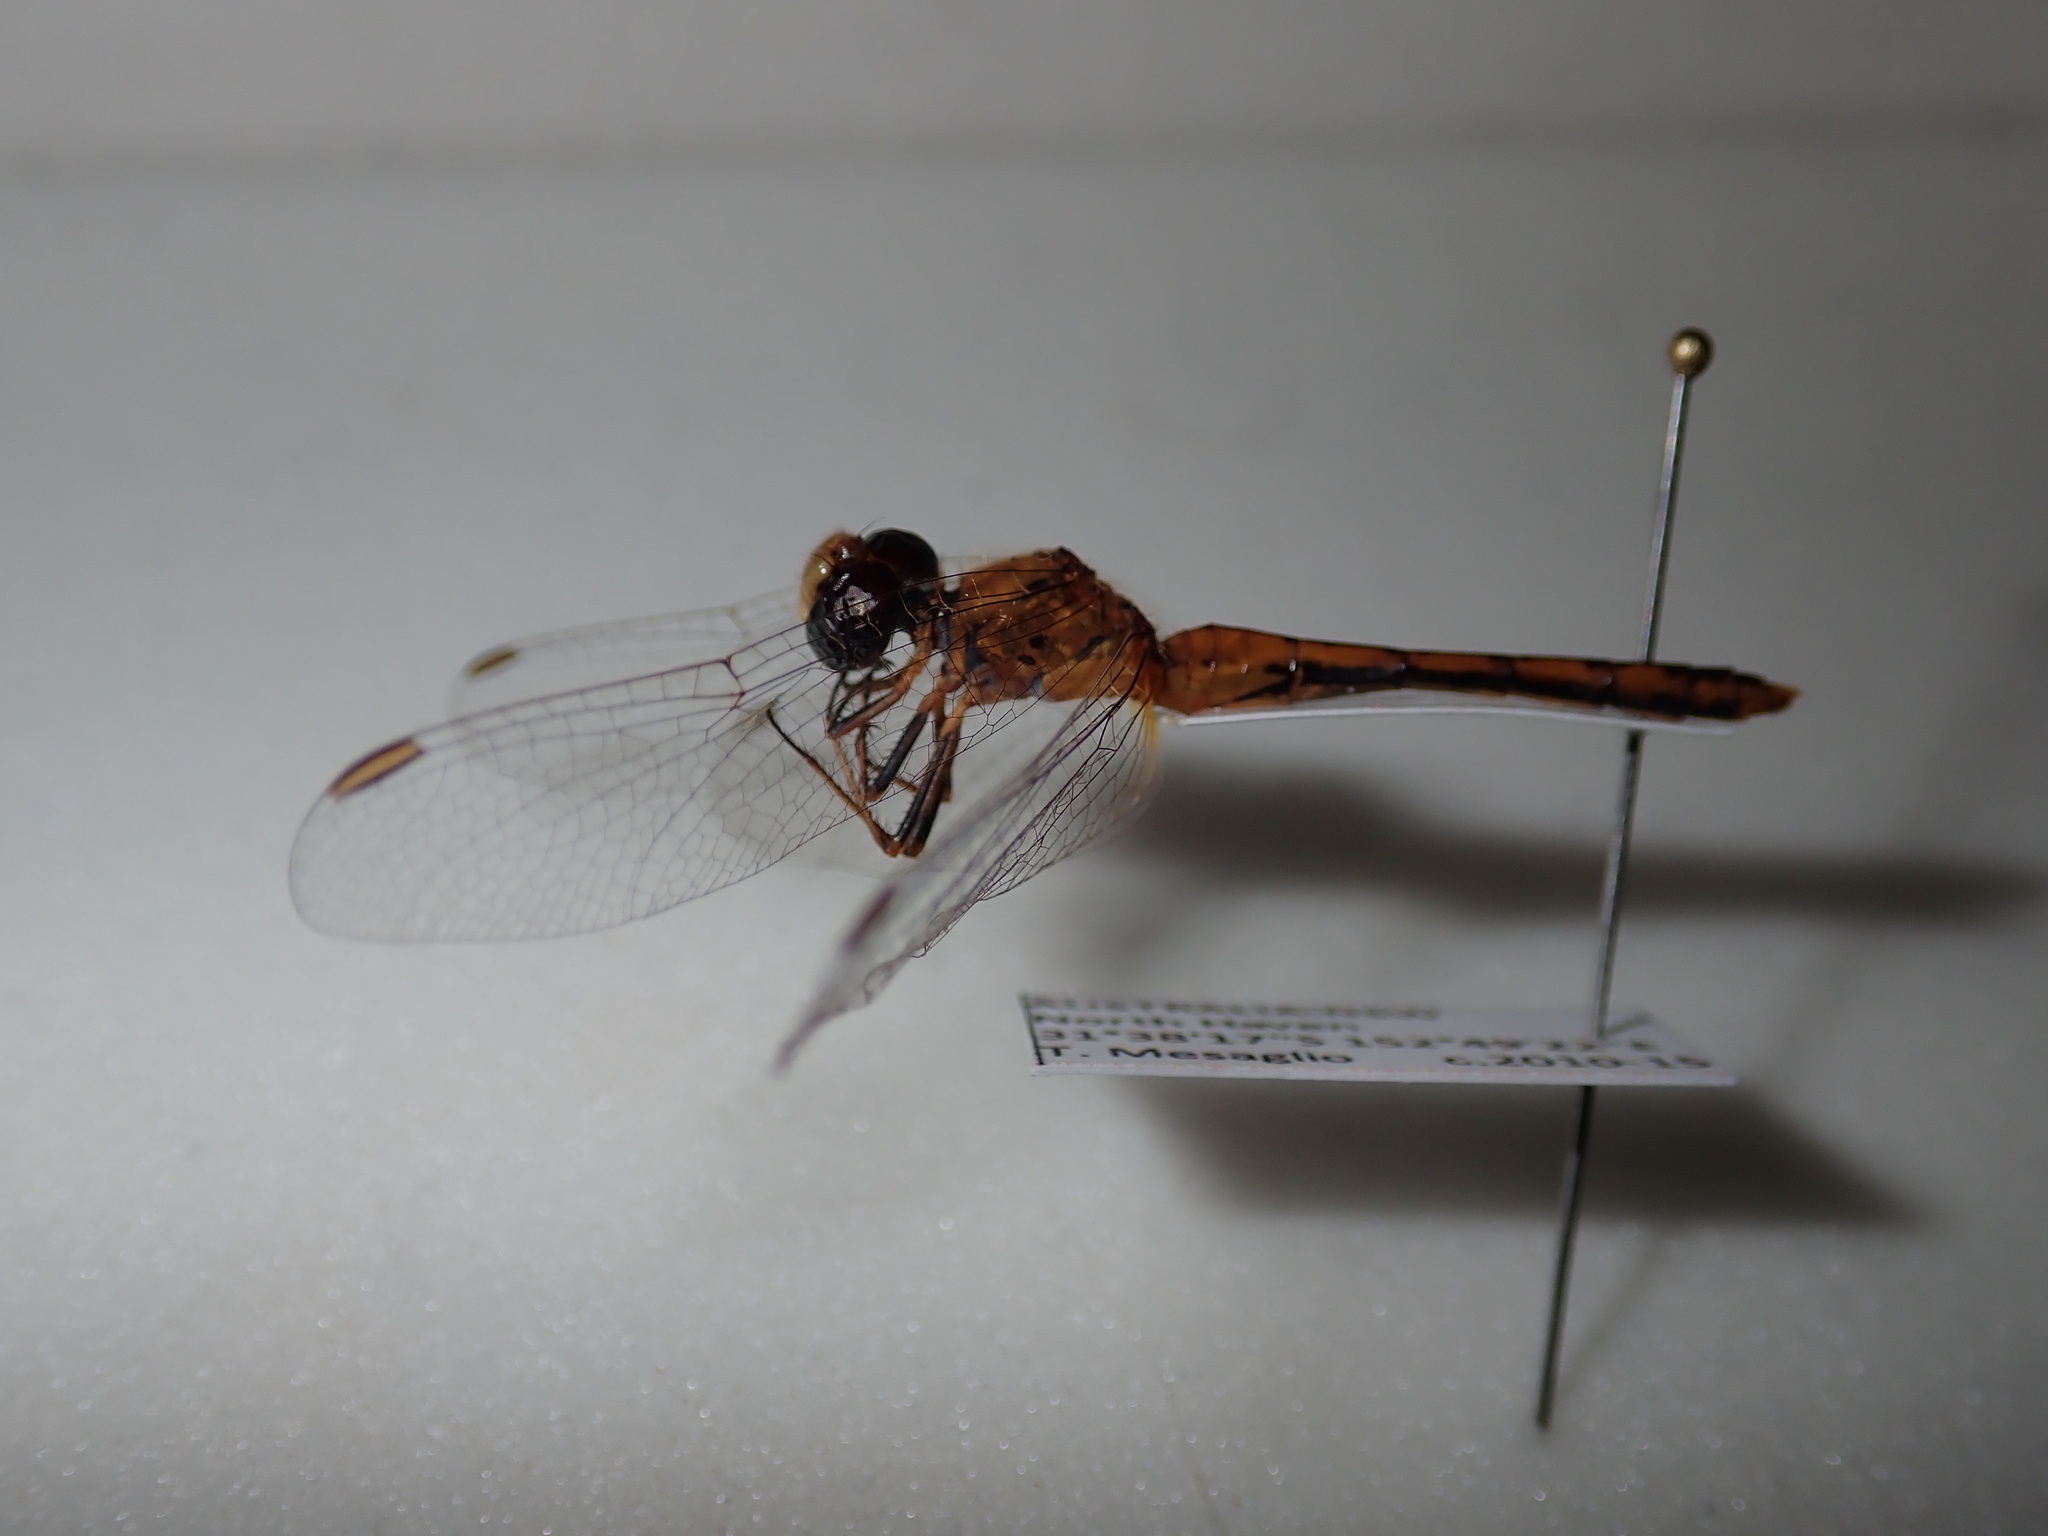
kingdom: Animalia
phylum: Arthropoda
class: Insecta
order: Odonata
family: Libellulidae
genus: Diplacodes
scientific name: Diplacodes bipunctata
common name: Red percher dragonfly
